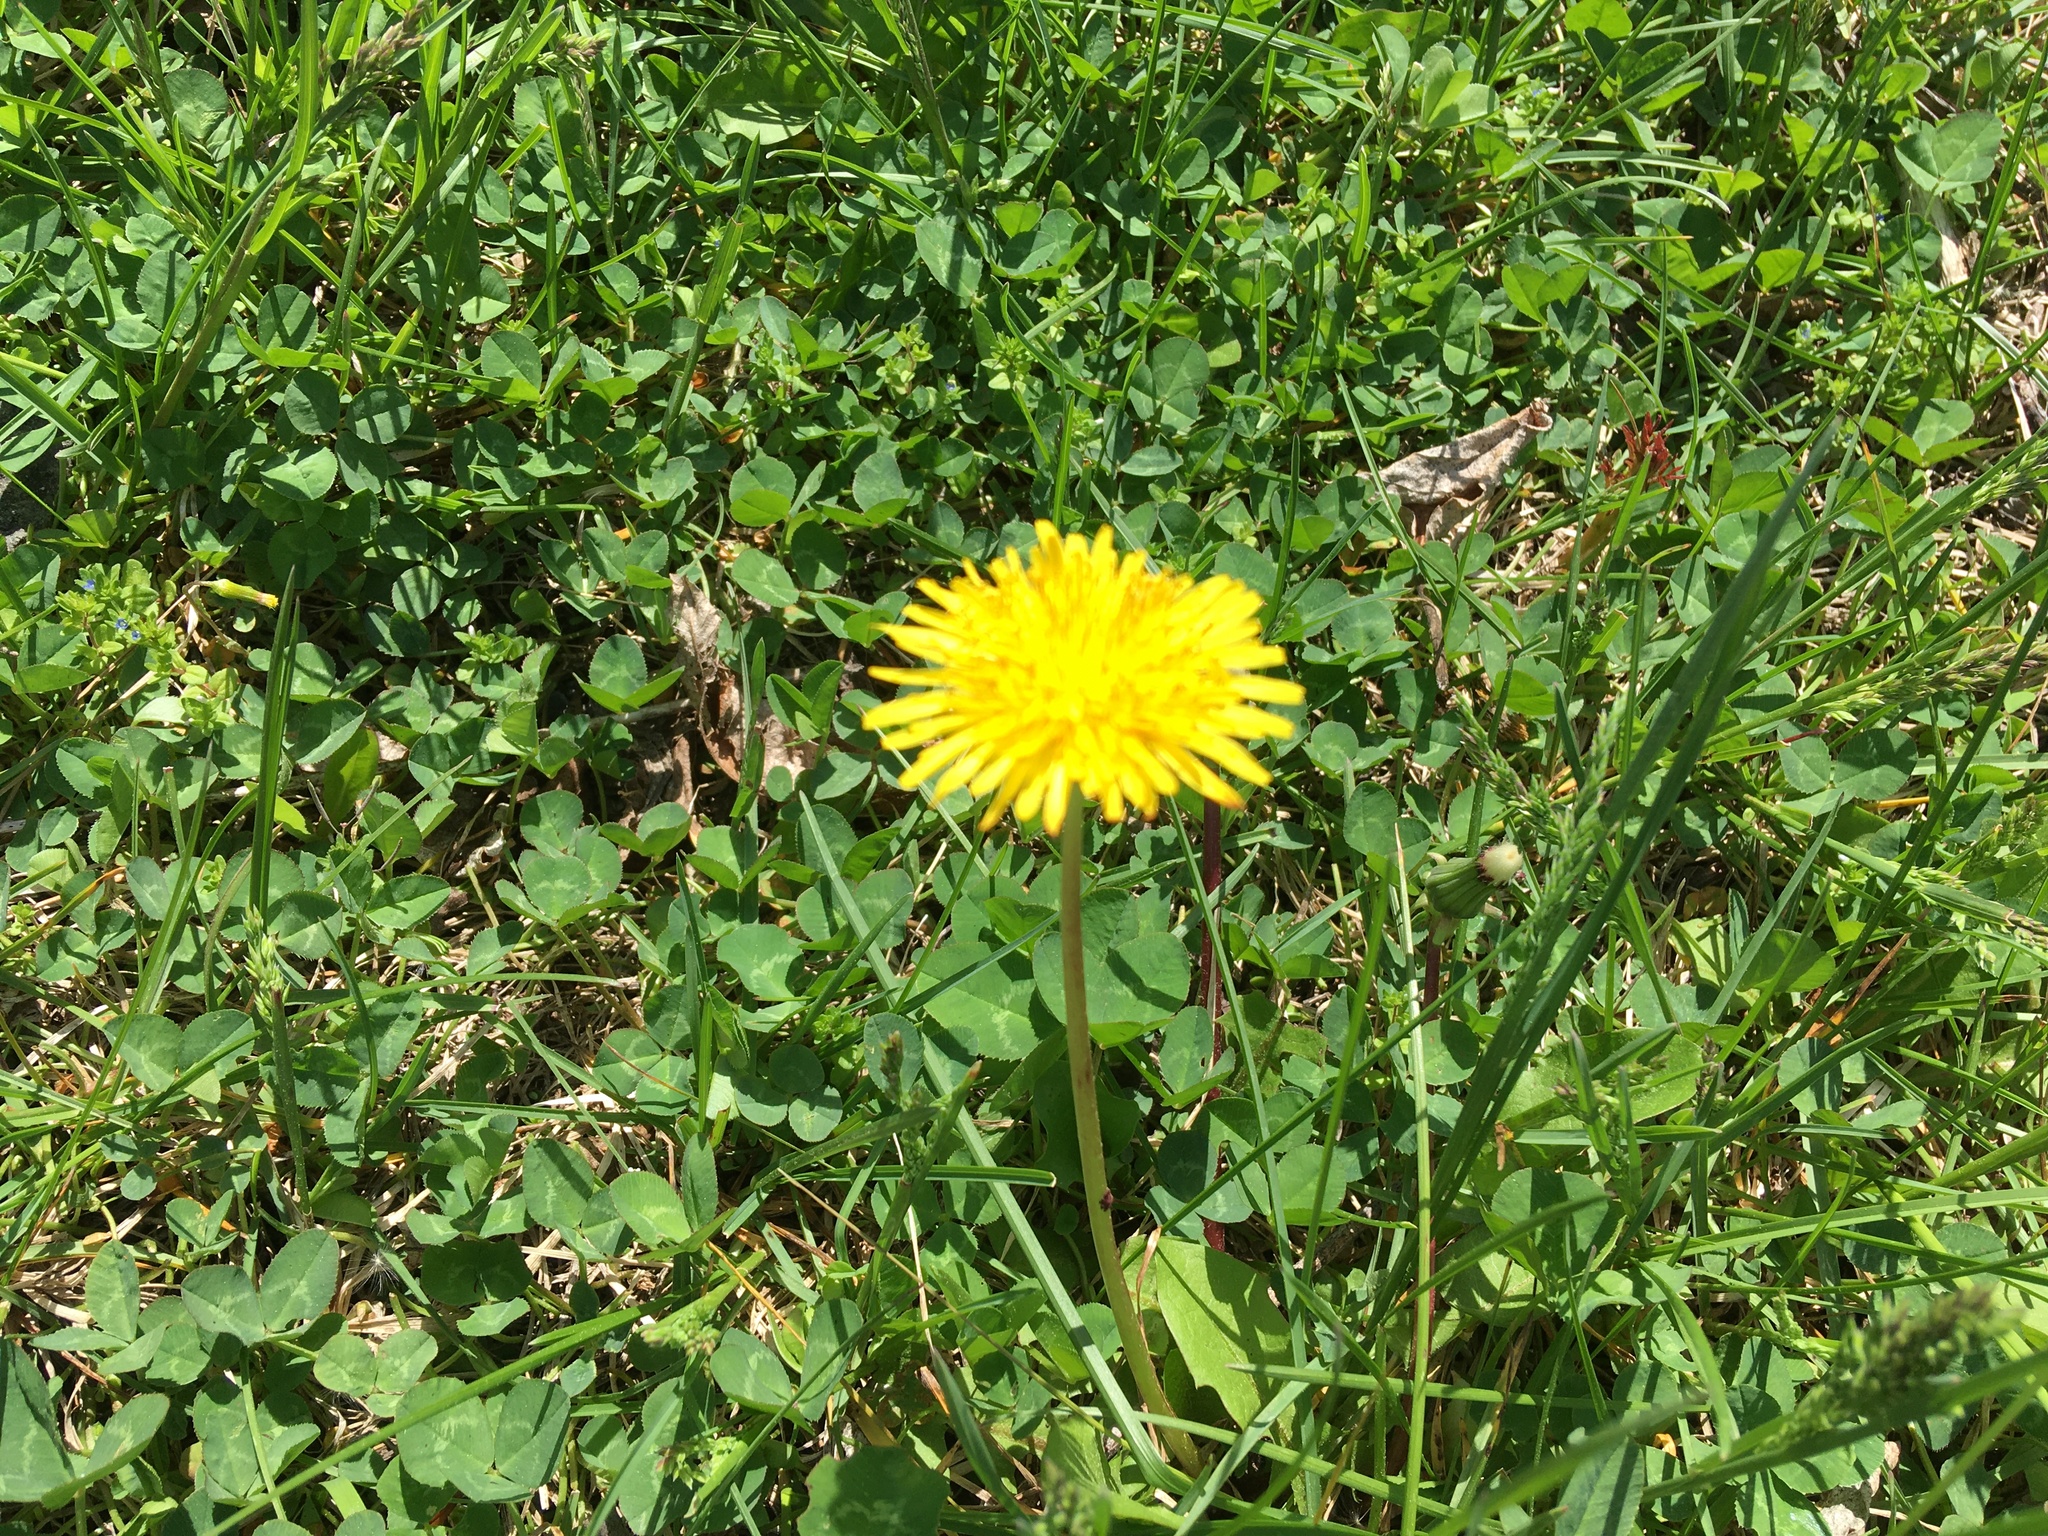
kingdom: Plantae
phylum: Tracheophyta
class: Magnoliopsida
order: Asterales
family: Asteraceae
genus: Taraxacum
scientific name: Taraxacum officinale
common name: Common dandelion
